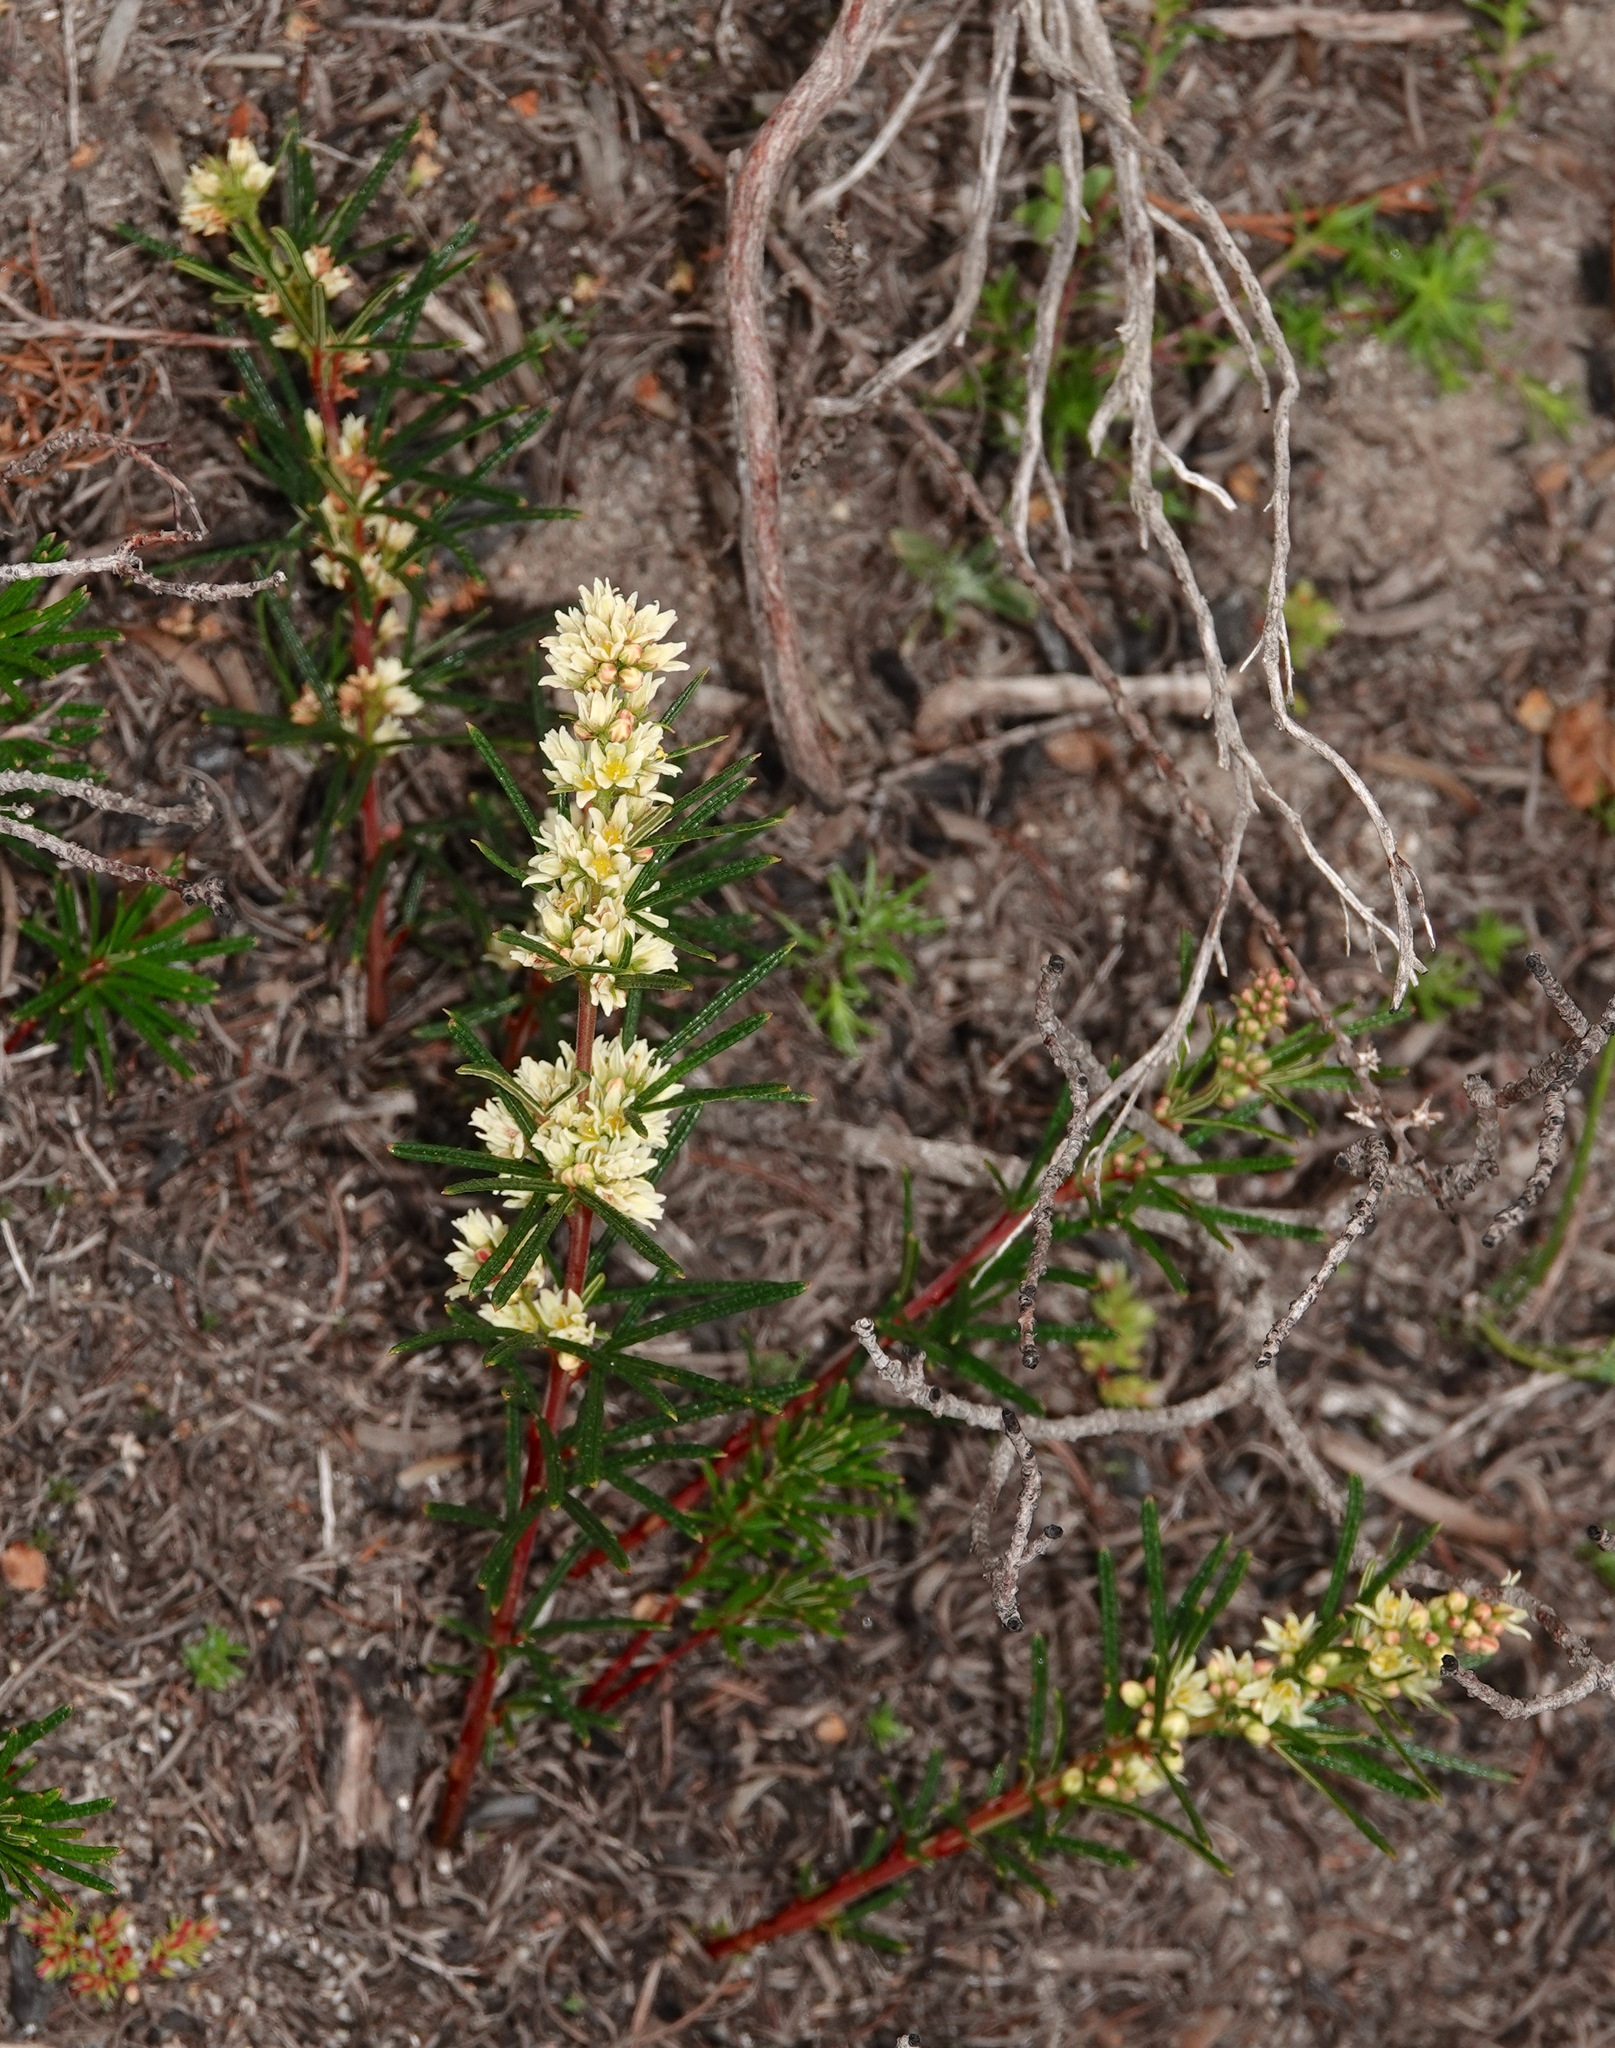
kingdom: Plantae
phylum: Tracheophyta
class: Magnoliopsida
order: Sapindales
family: Anacardiaceae
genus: Searsia
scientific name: Searsia rosmarinifolia
